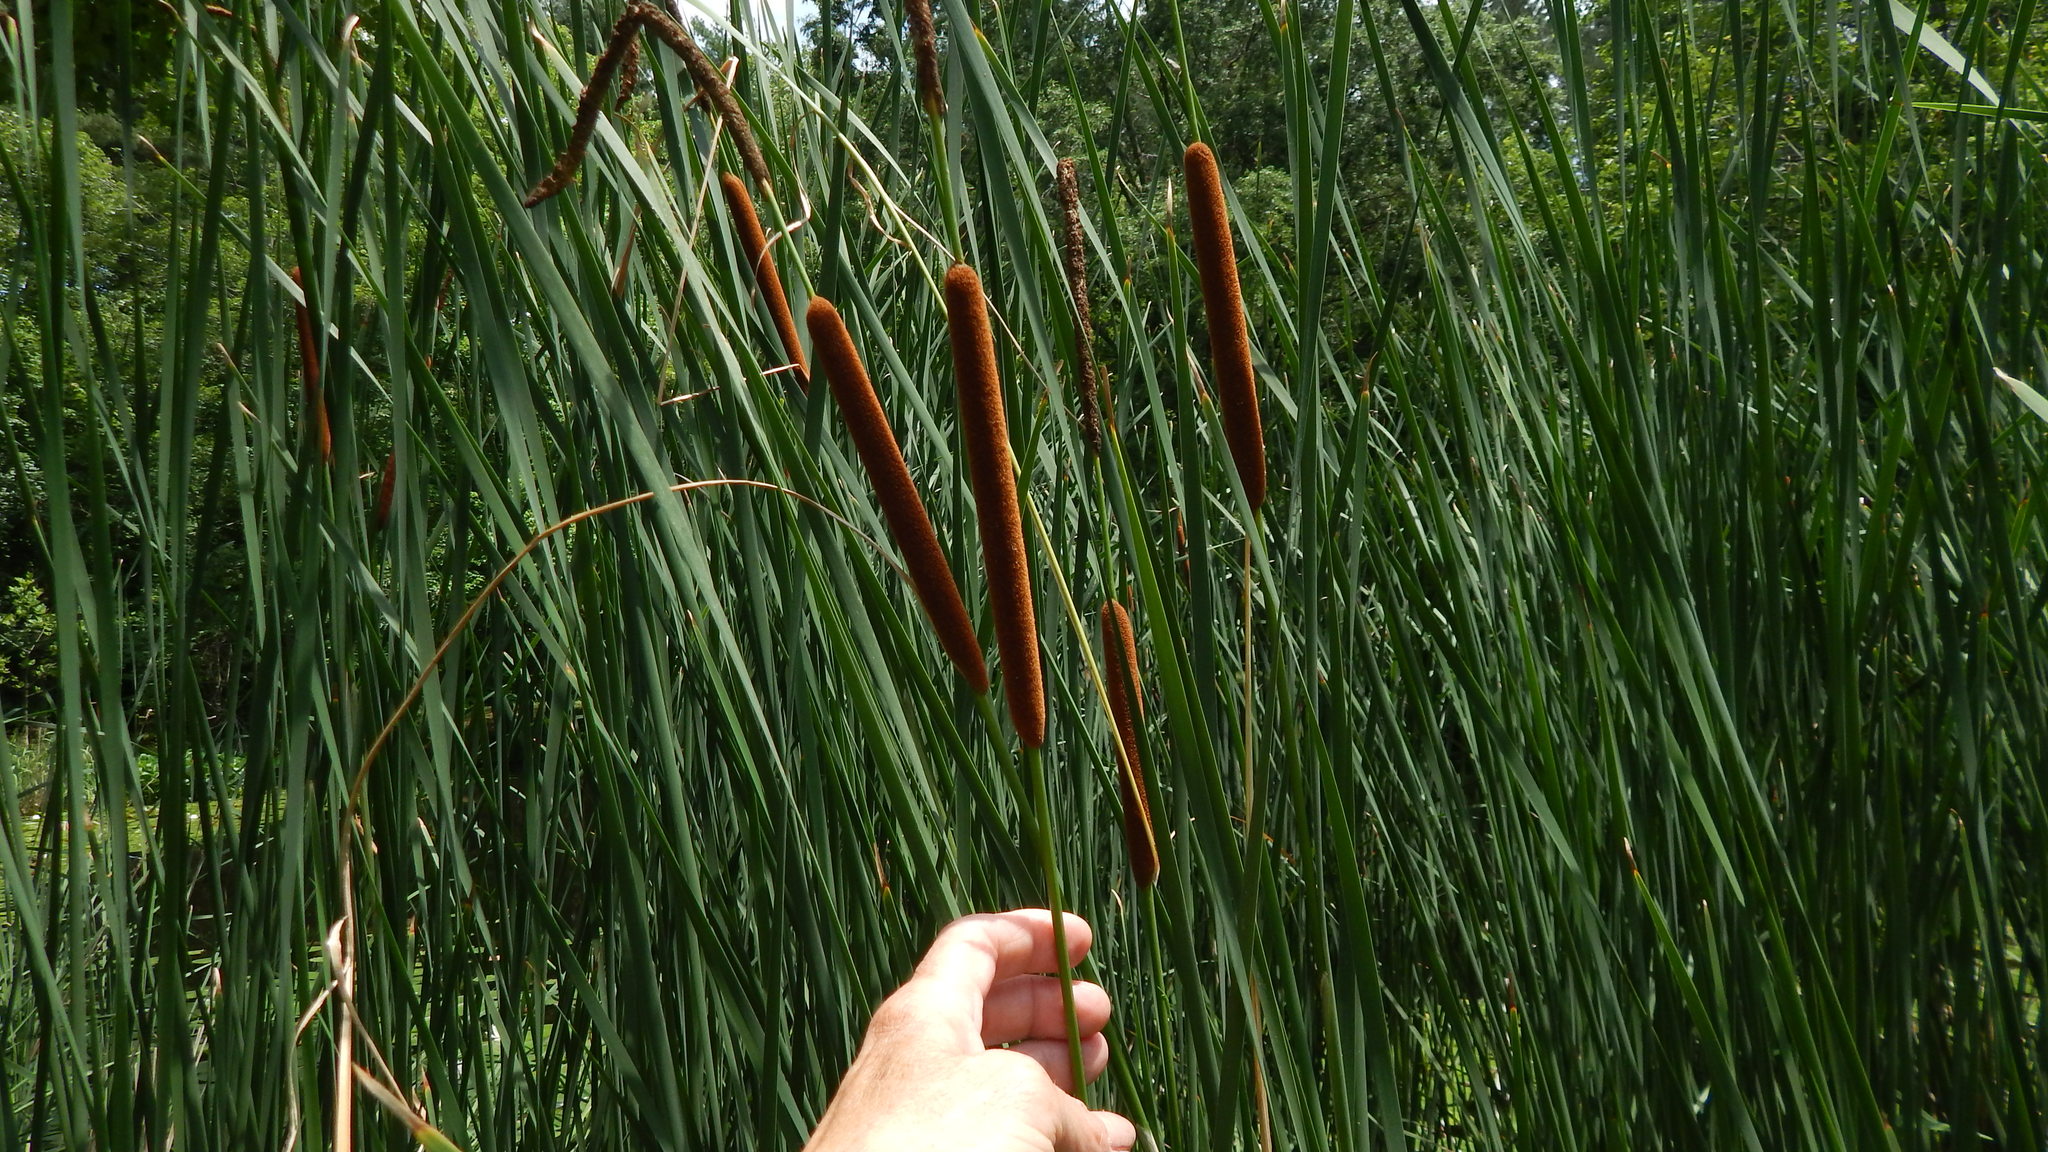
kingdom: Plantae
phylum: Tracheophyta
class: Liliopsida
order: Poales
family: Typhaceae
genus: Typha
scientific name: Typha angustifolia
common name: Lesser bulrush
